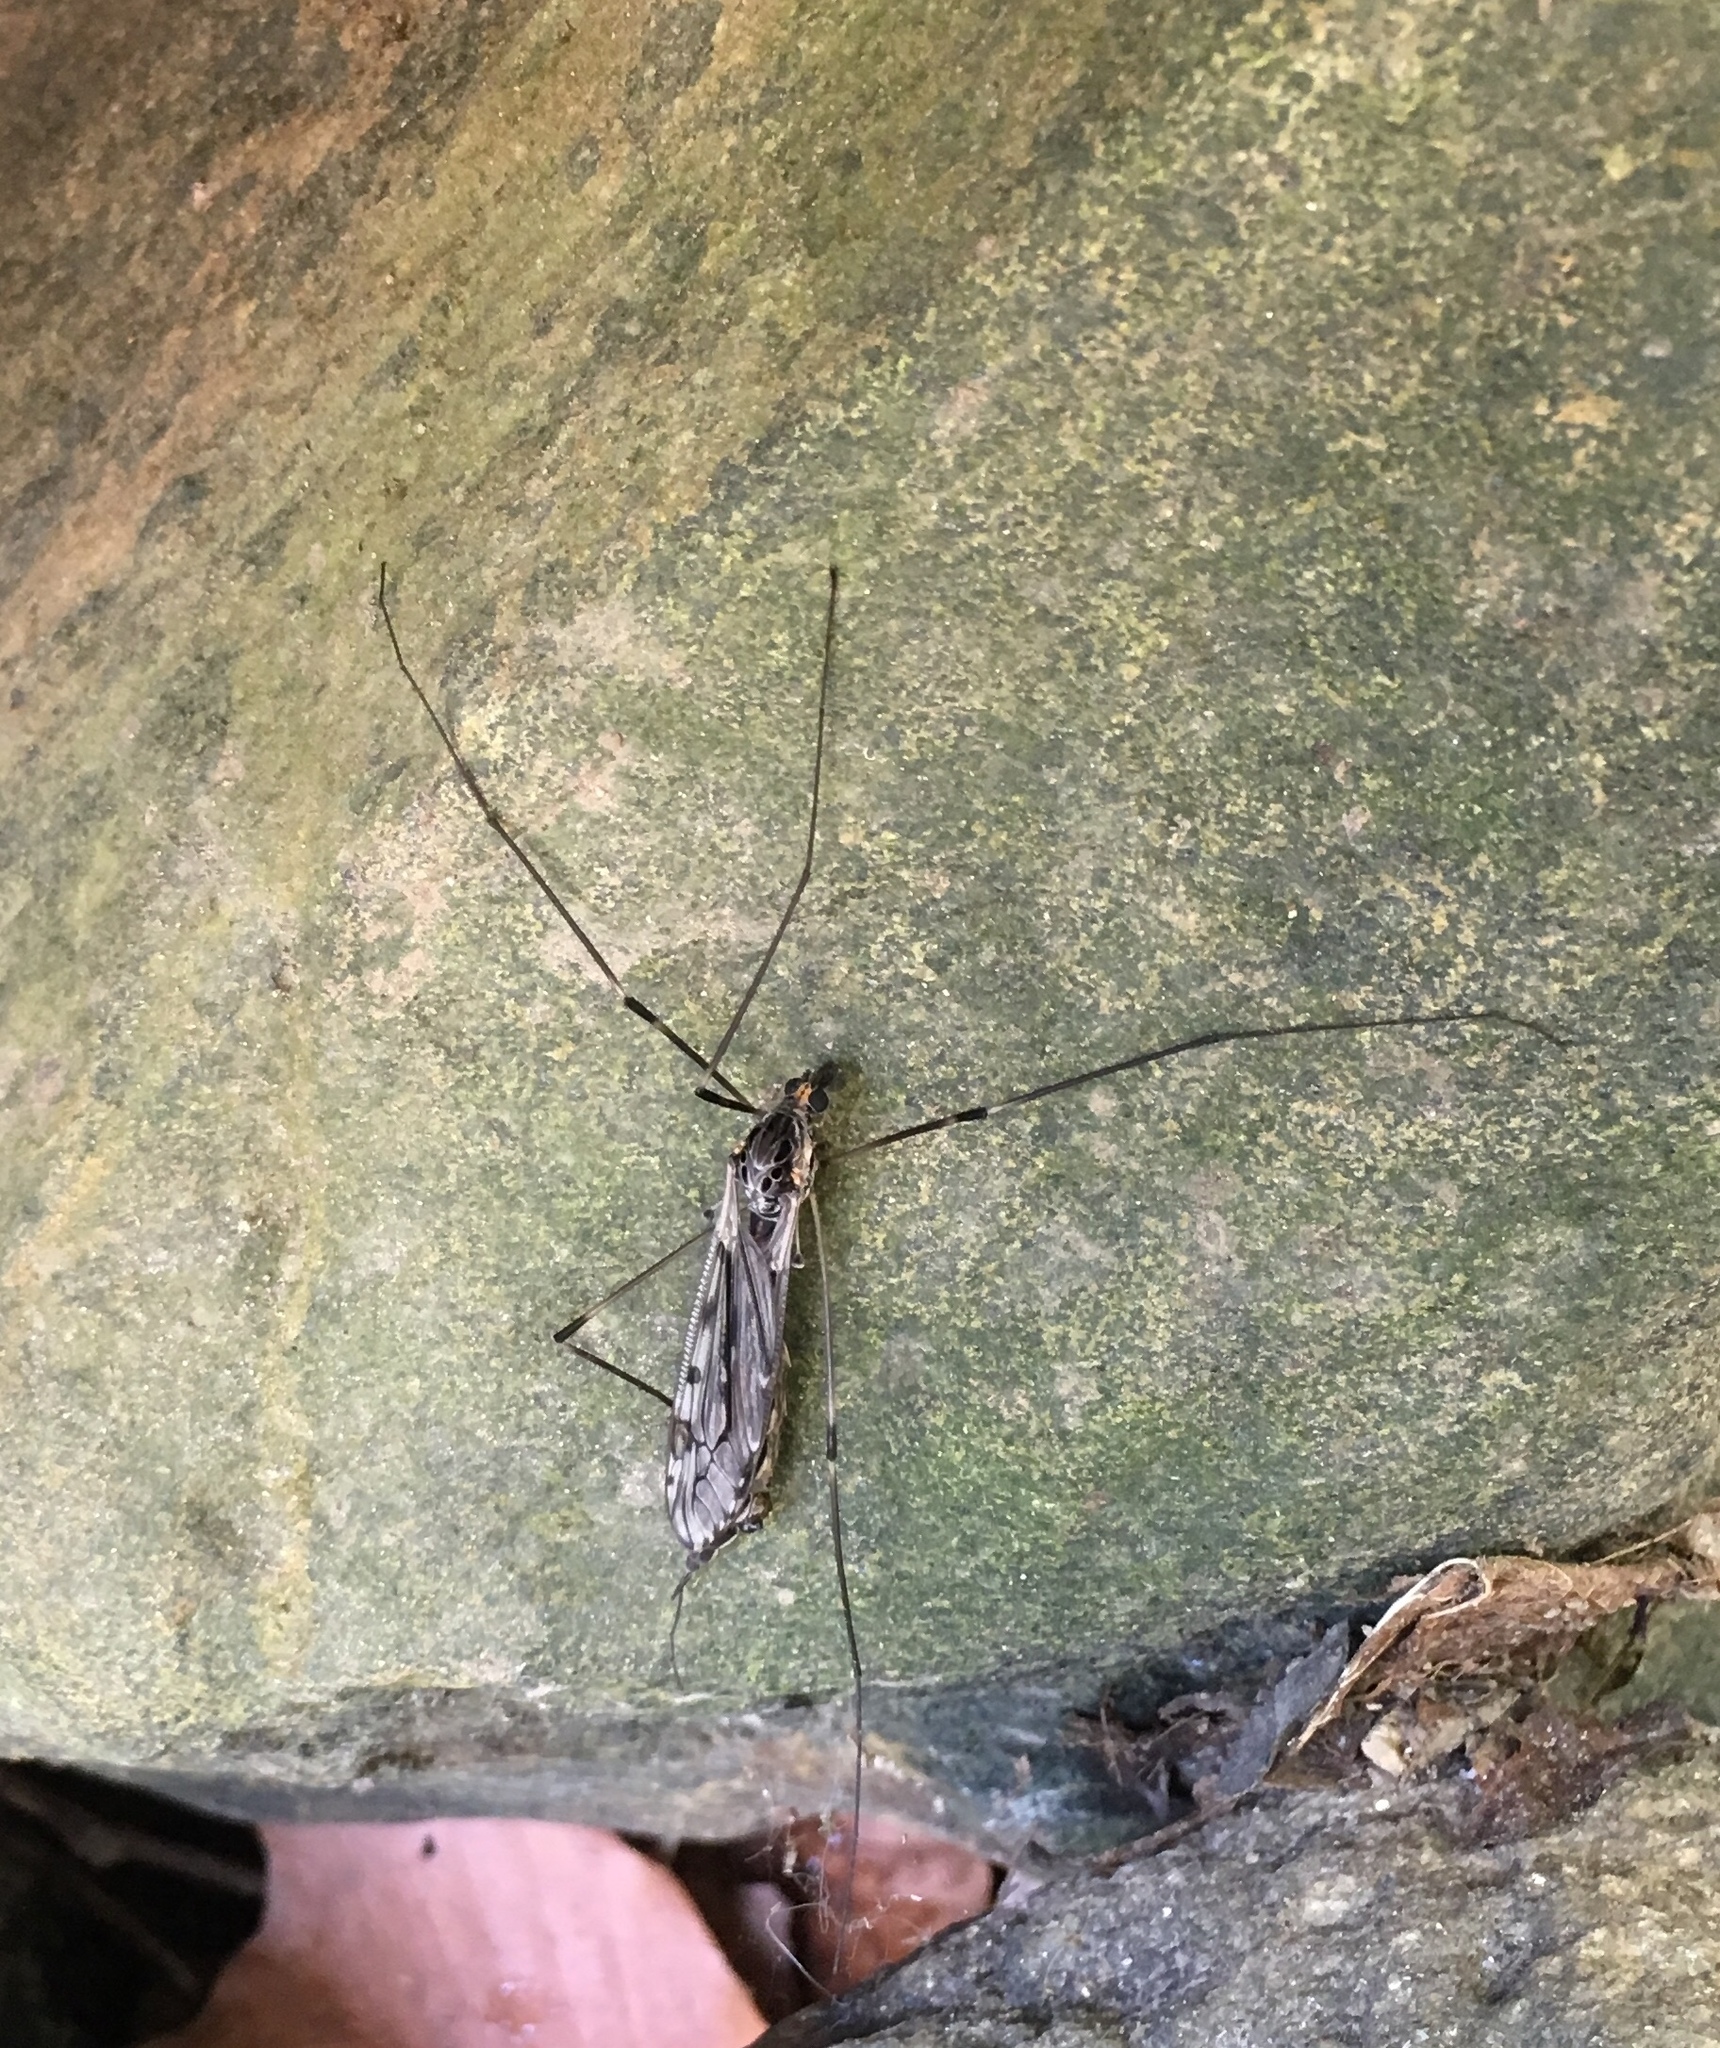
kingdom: Animalia
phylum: Arthropoda
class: Insecta
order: Diptera
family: Tipulidae
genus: Tipula
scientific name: Tipula abdominalis
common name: Giant crane fly
